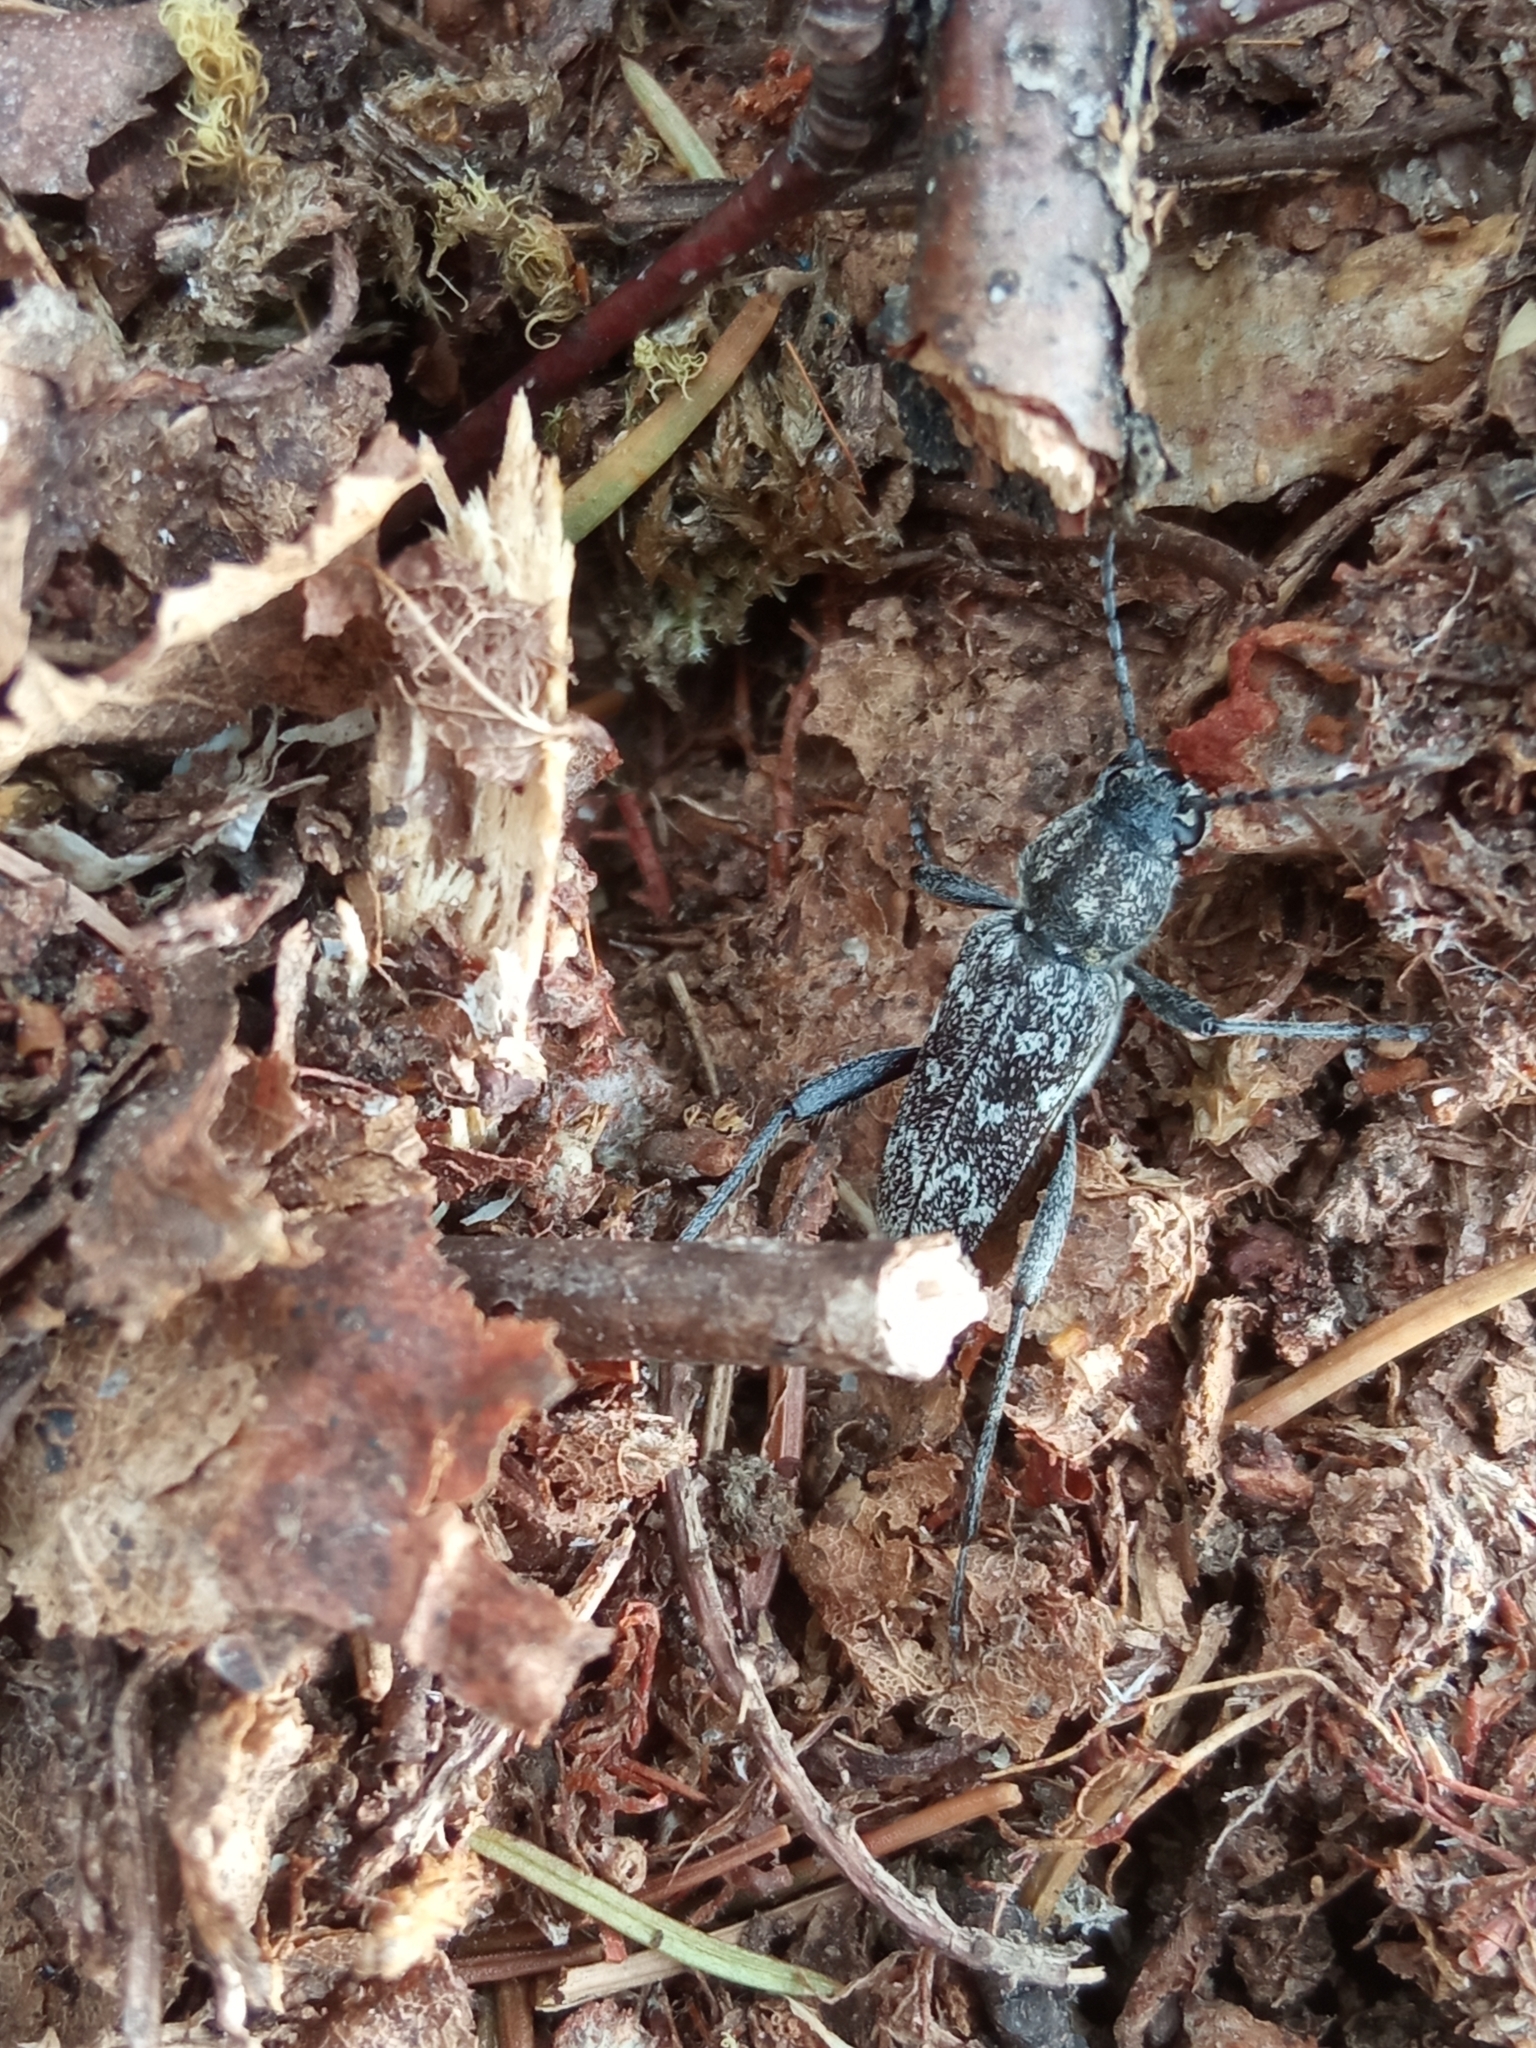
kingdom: Animalia
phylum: Arthropoda
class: Insecta
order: Coleoptera
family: Cerambycidae
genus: Xylotrechus
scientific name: Xylotrechus rusticus
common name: Grey tiger long-horned beetle
